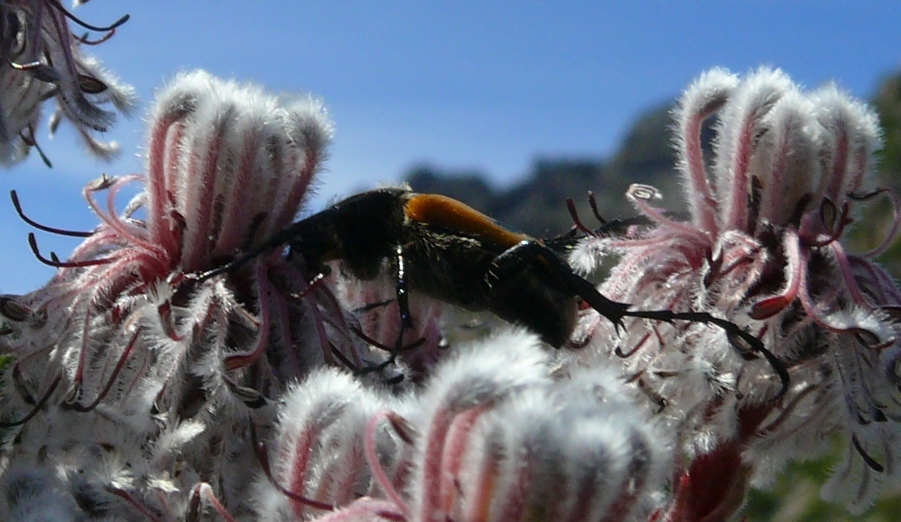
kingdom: Animalia
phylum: Arthropoda
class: Insecta
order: Coleoptera
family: Scarabaeidae
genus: Campulipus
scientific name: Campulipus limbatus
